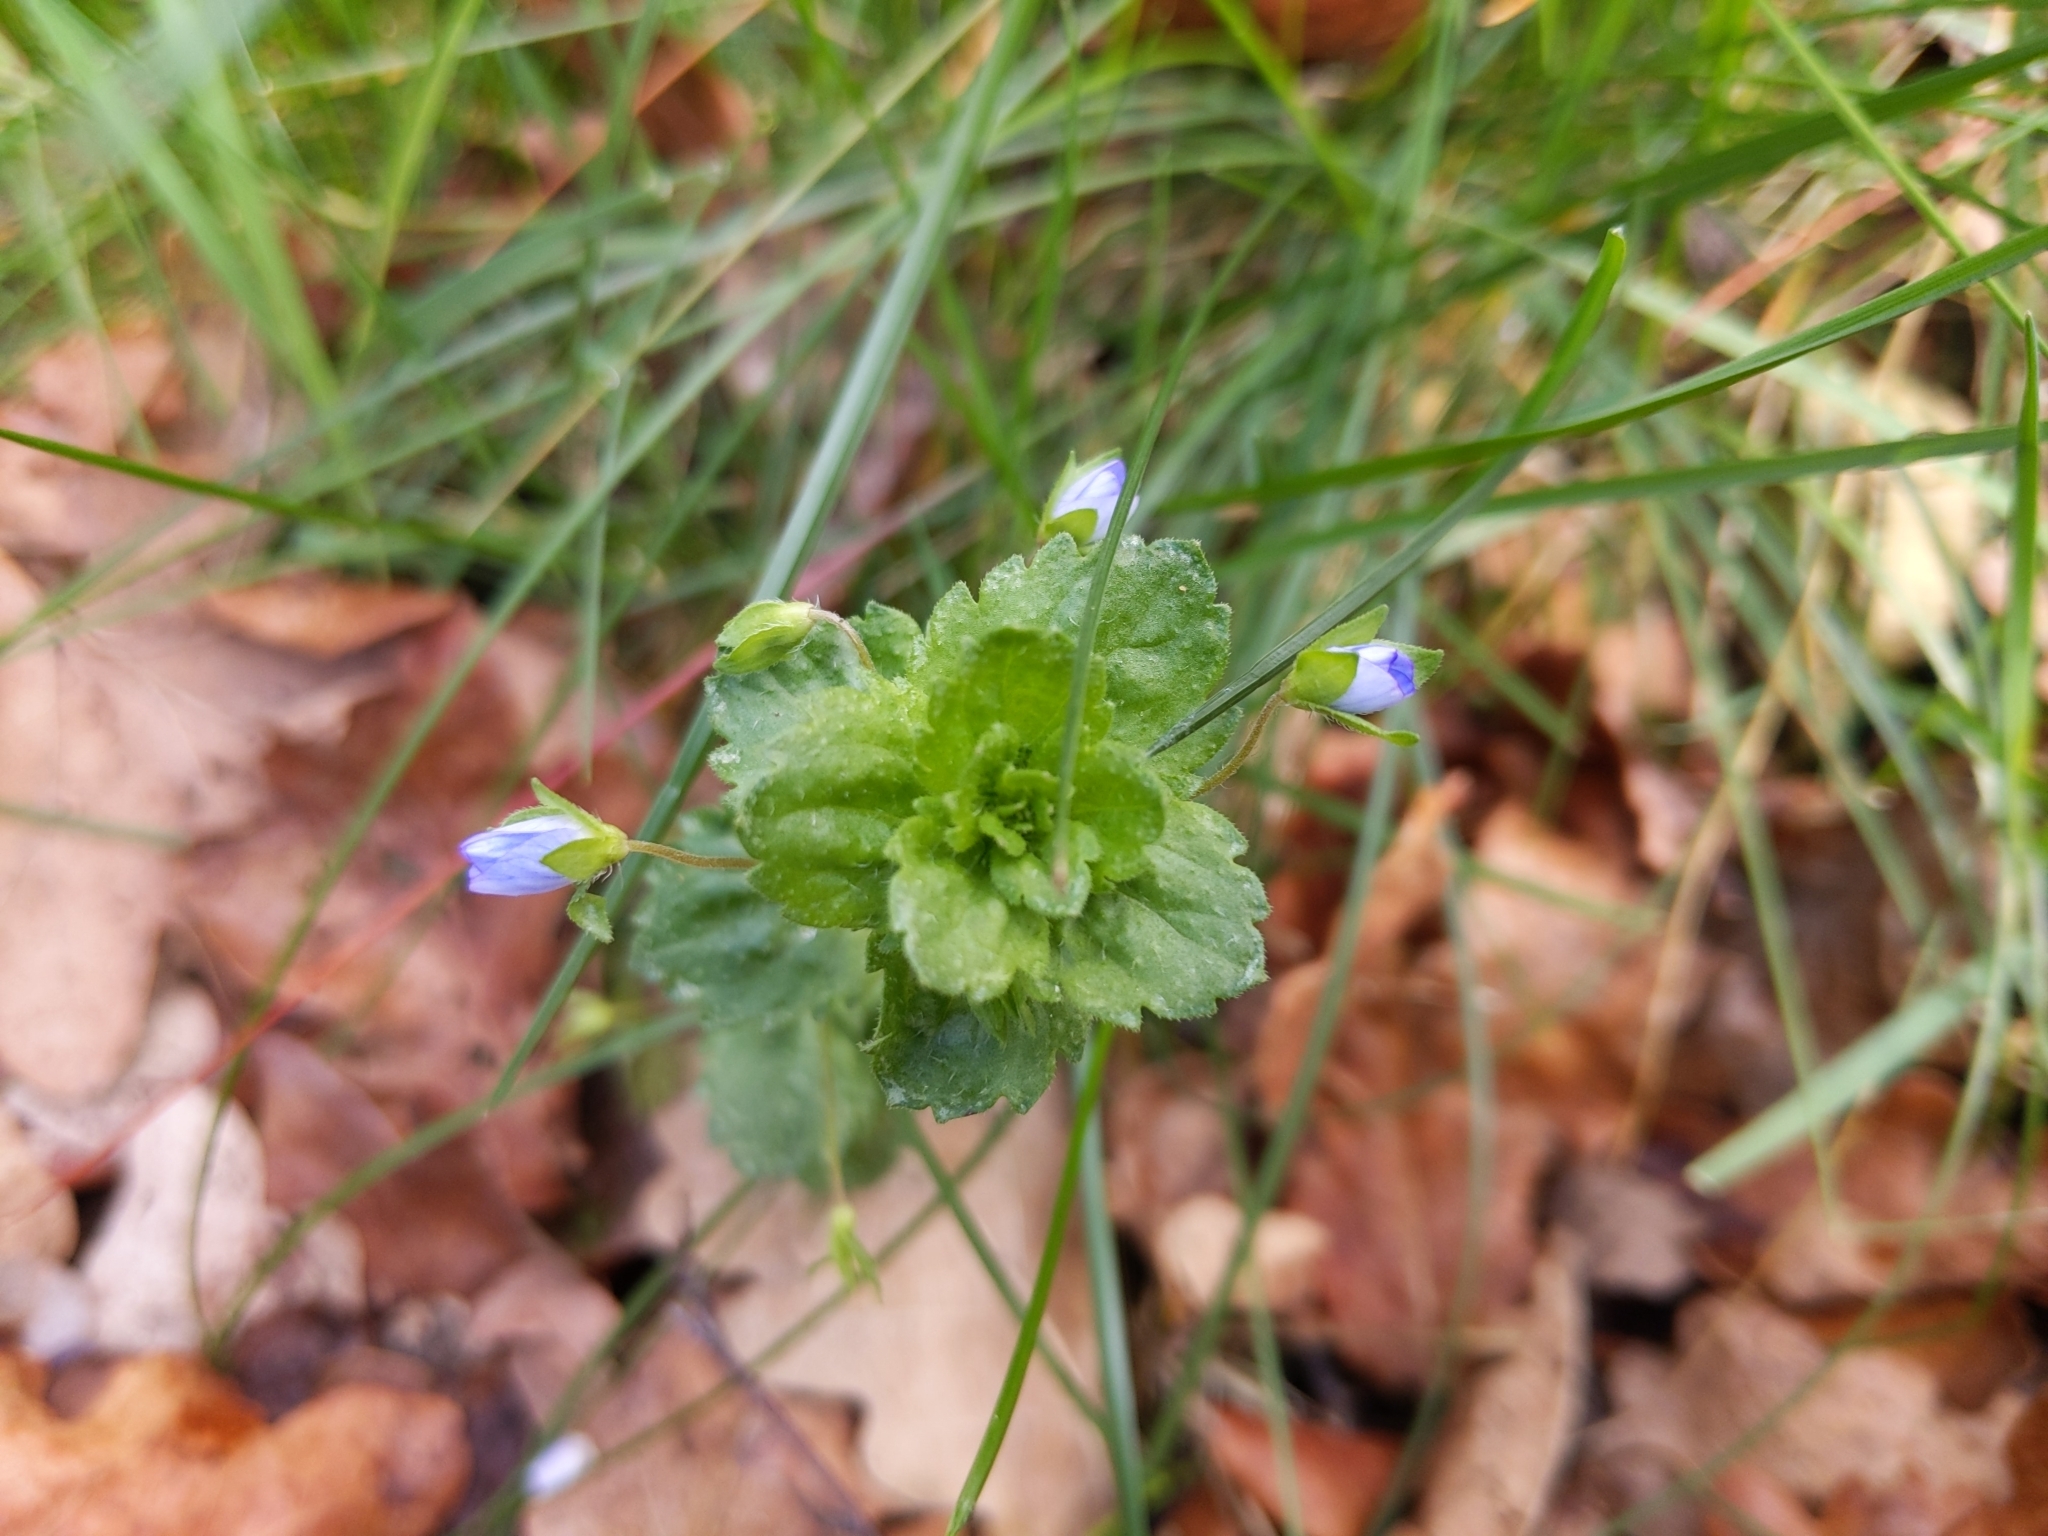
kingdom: Plantae
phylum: Tracheophyta
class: Magnoliopsida
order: Lamiales
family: Plantaginaceae
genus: Veronica
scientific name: Veronica persica
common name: Common field-speedwell
